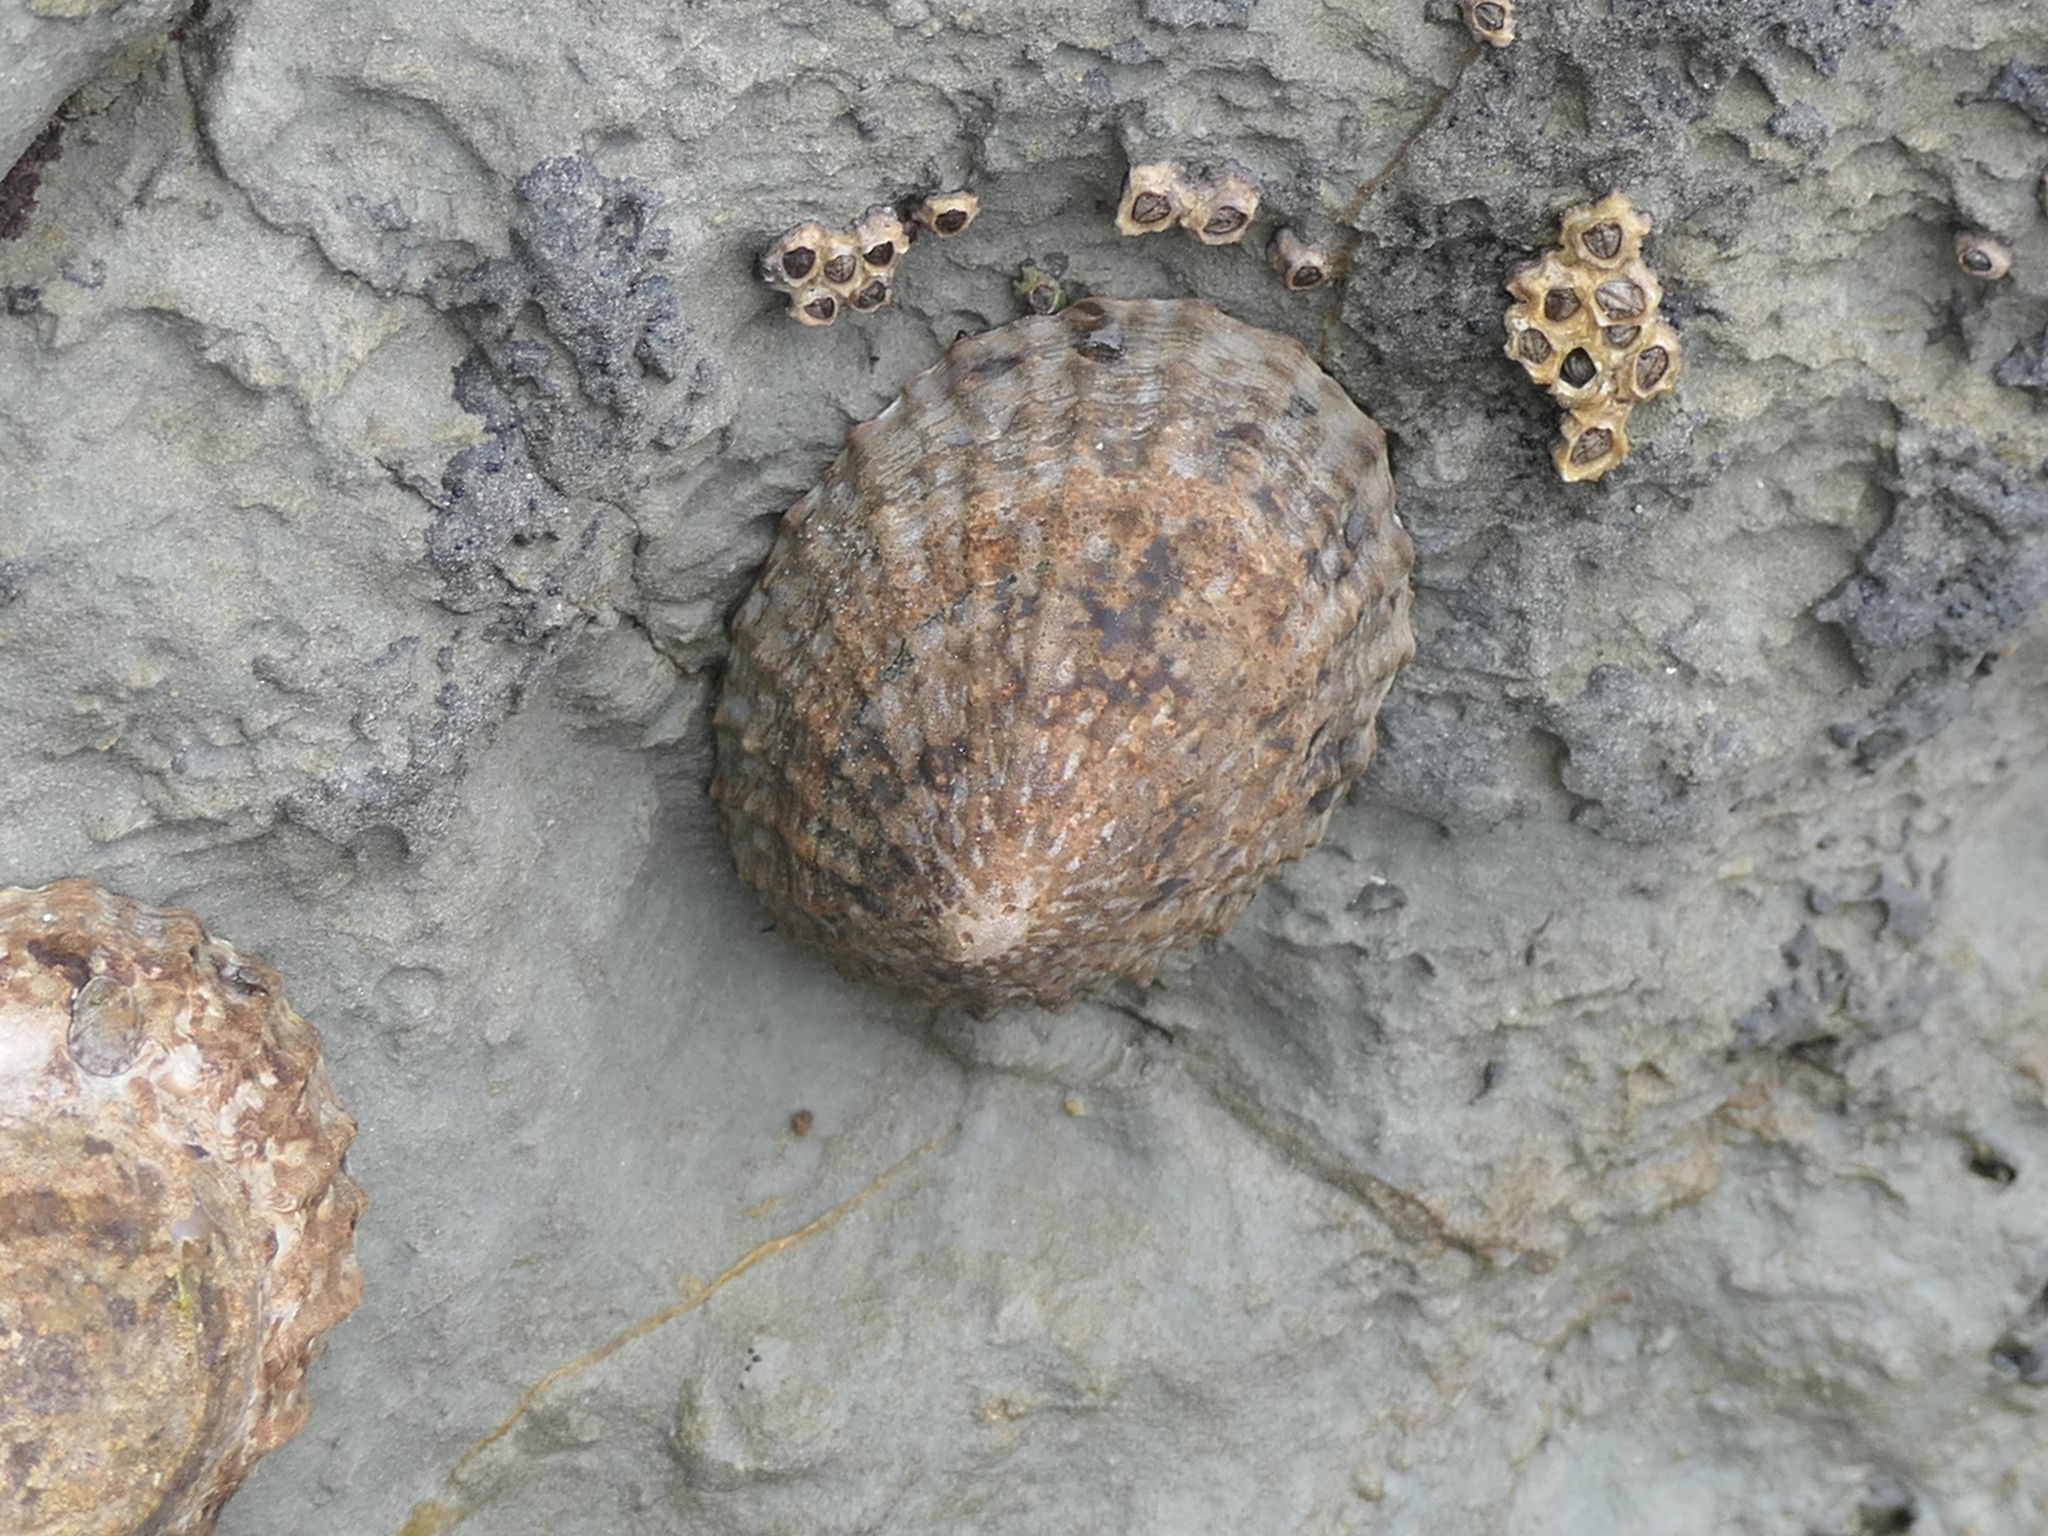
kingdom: Animalia
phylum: Mollusca
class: Gastropoda
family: Nacellidae
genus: Cellana
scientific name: Cellana denticulata
